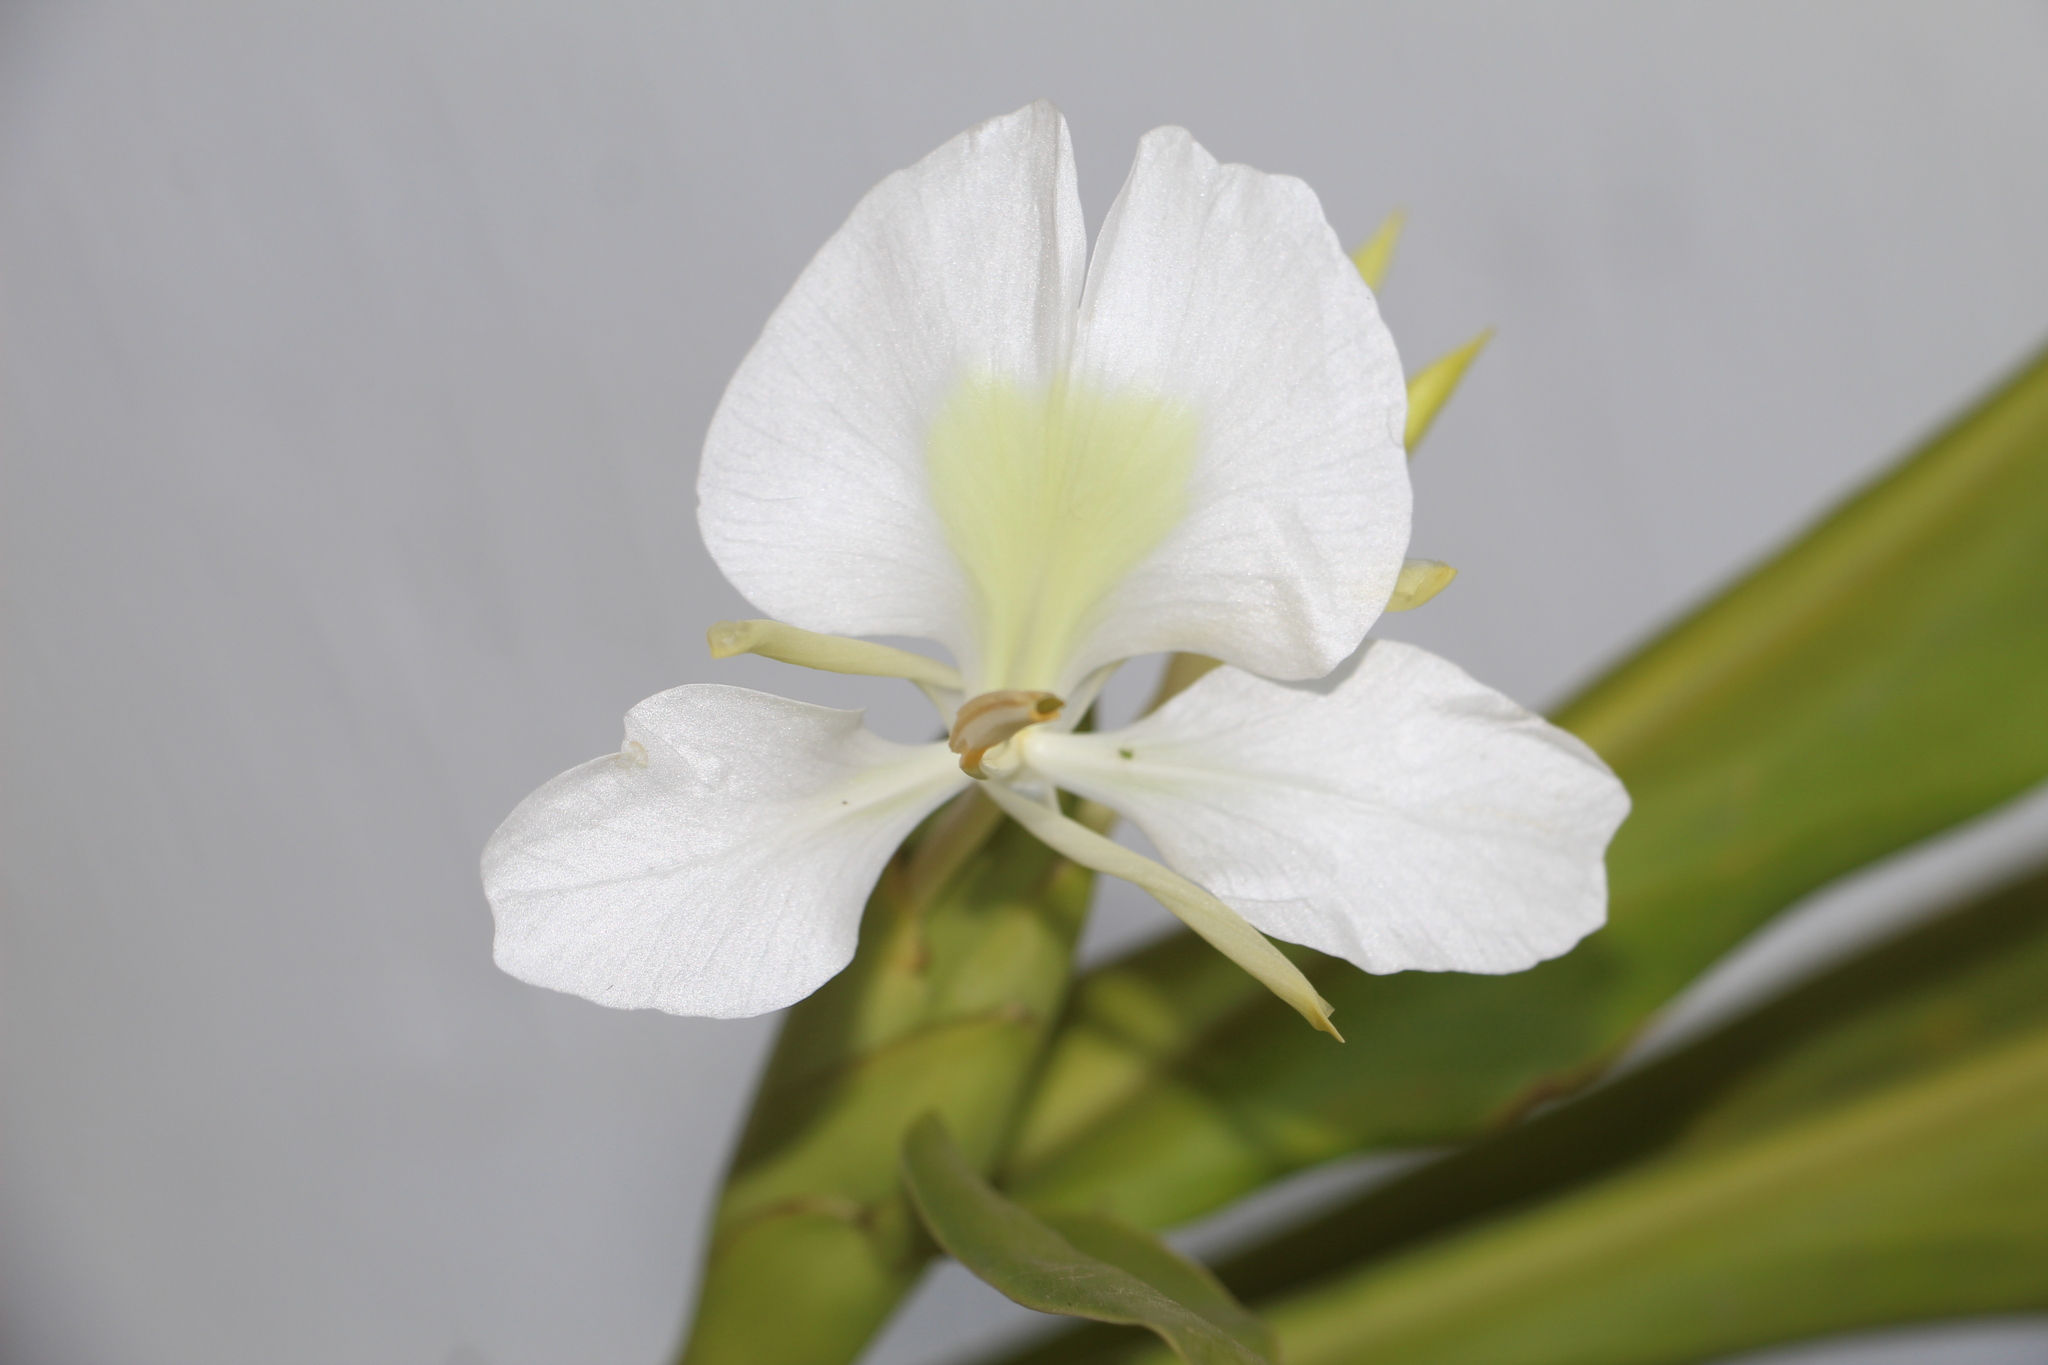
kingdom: Plantae
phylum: Tracheophyta
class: Liliopsida
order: Zingiberales
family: Zingiberaceae
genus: Hedychium
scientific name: Hedychium coronarium
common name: White garland-lily
